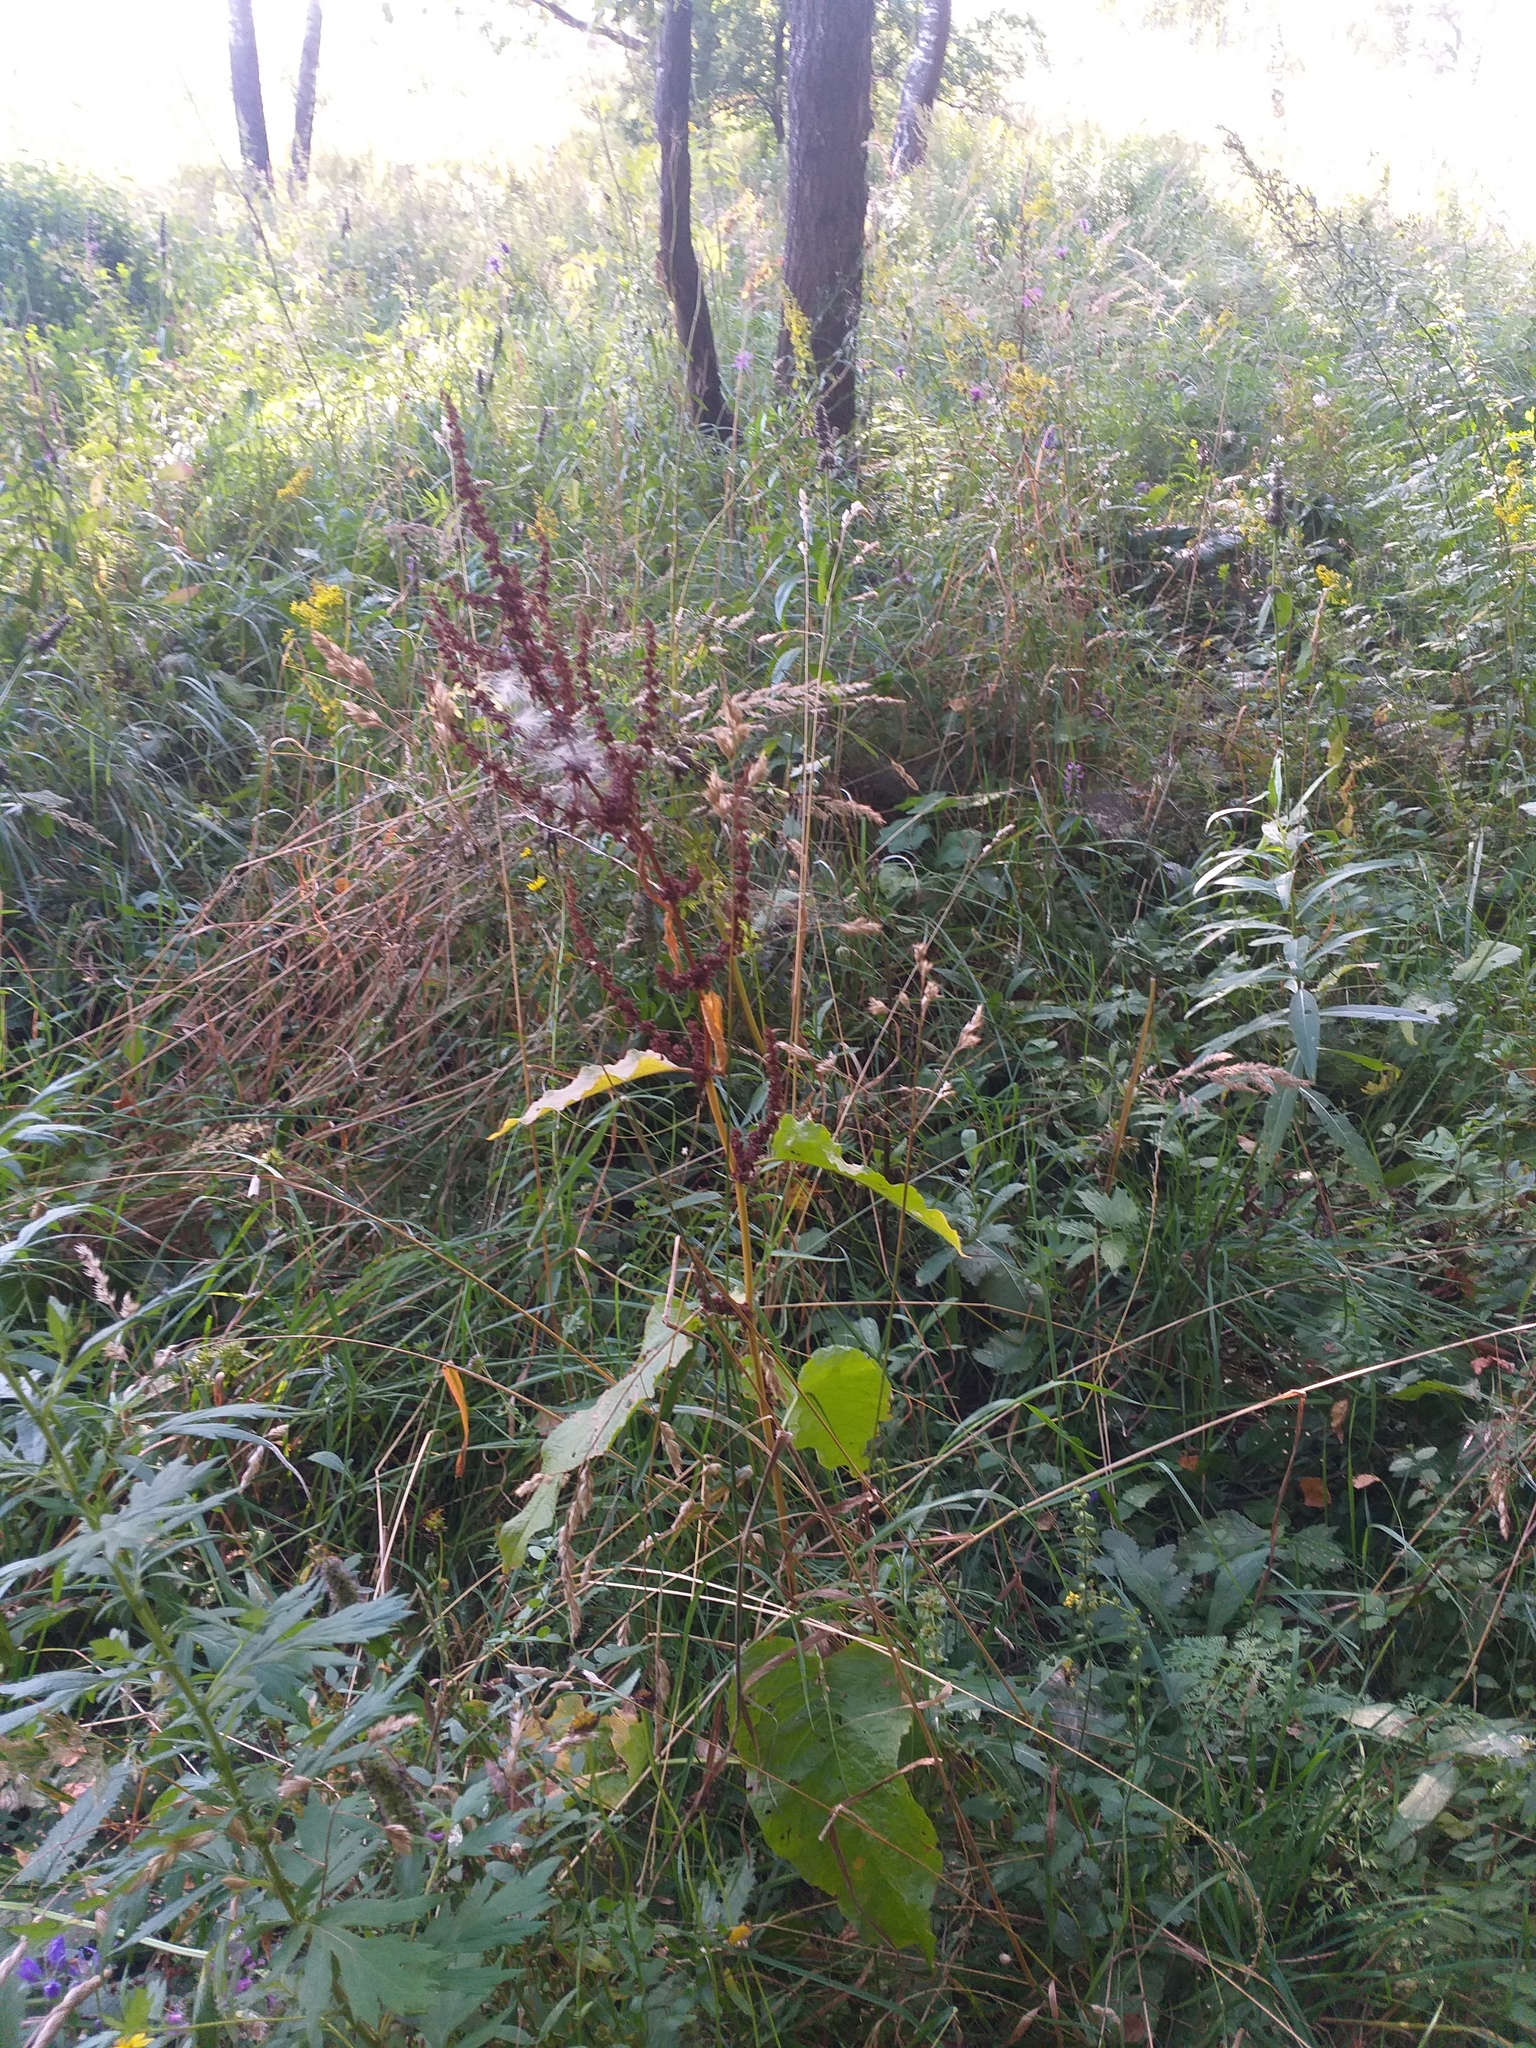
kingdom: Plantae
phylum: Tracheophyta
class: Magnoliopsida
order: Caryophyllales
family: Polygonaceae
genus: Rumex
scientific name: Rumex obtusifolius
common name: Bitter dock
